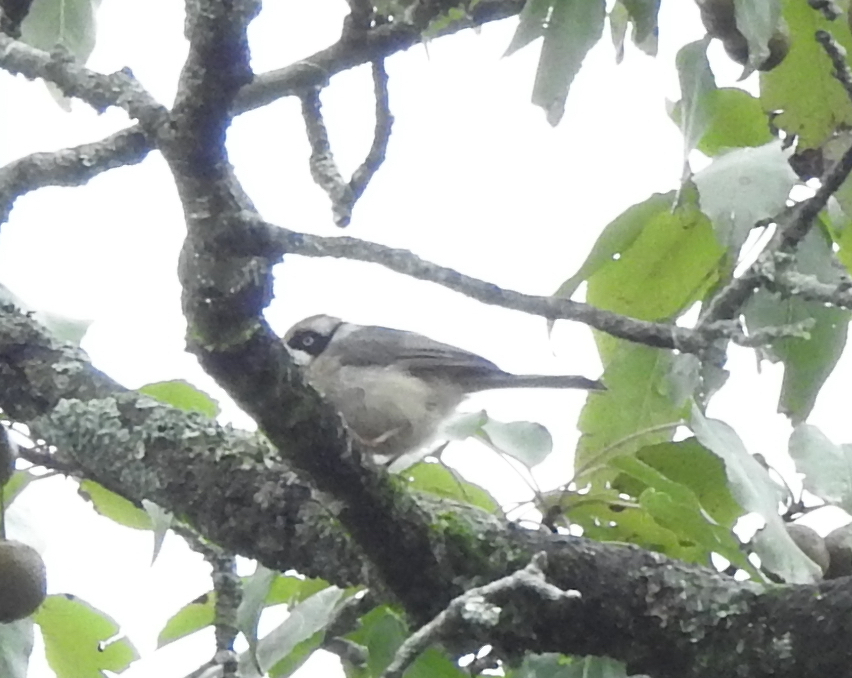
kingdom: Animalia
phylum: Chordata
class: Aves
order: Passeriformes
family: Aegithalidae
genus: Aegithalos
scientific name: Aegithalos concinnus
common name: Black-throated bushtit
